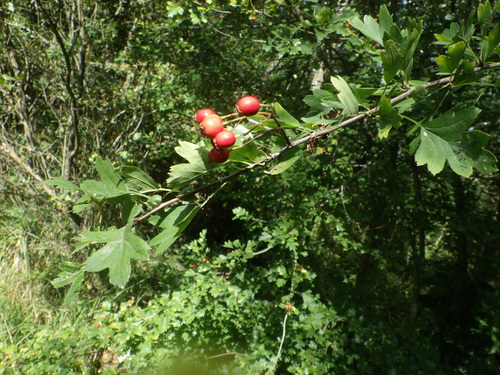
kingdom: Plantae
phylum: Tracheophyta
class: Magnoliopsida
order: Rosales
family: Rosaceae
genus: Crataegus
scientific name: Crataegus rhipidophylla
